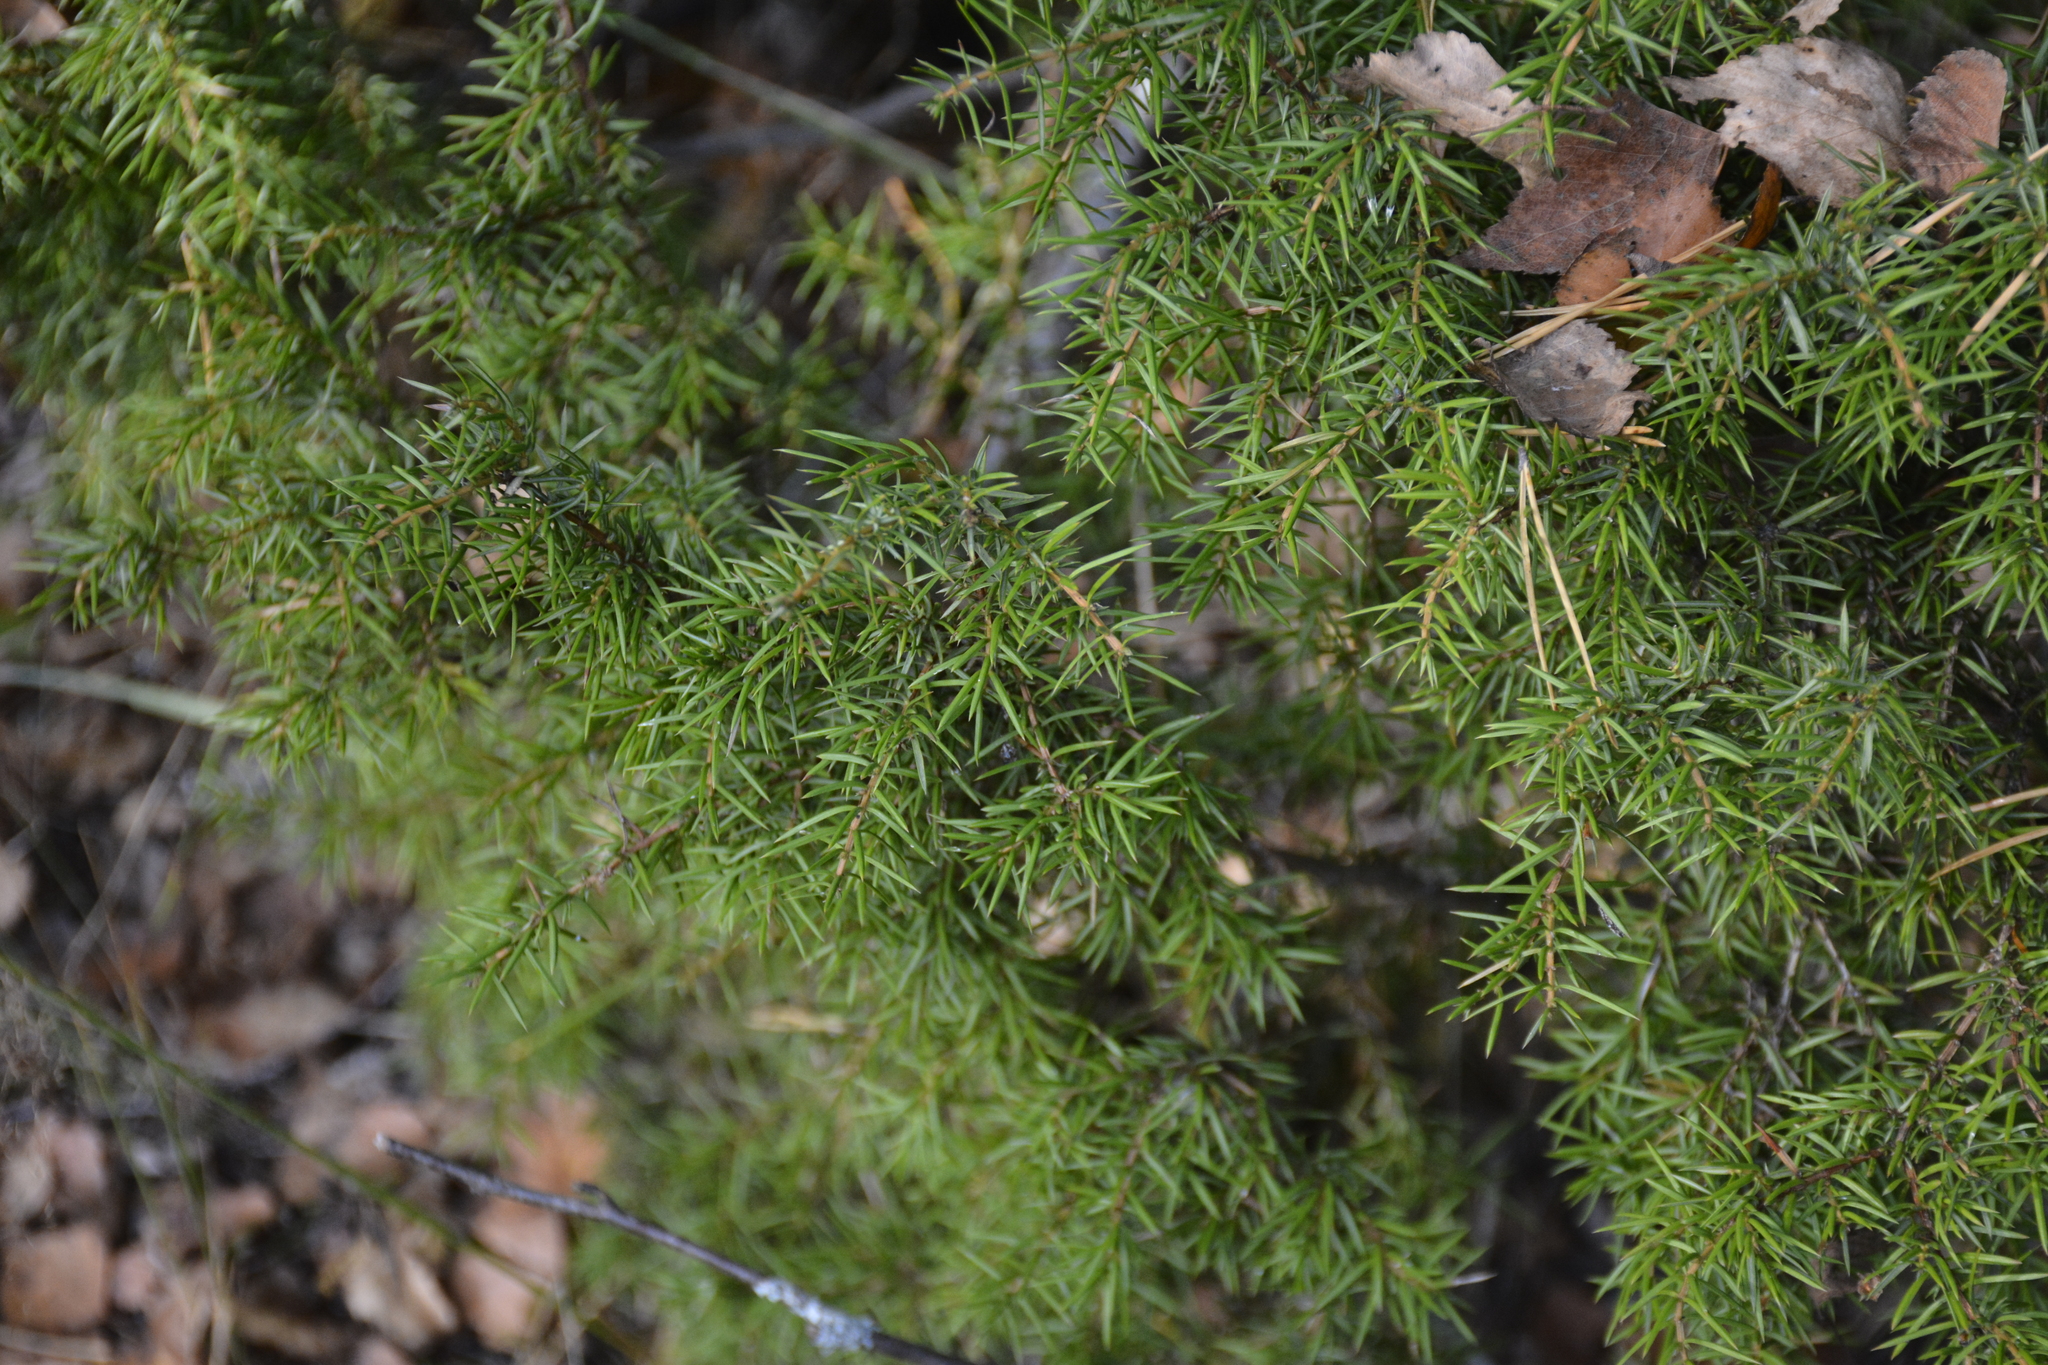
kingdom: Plantae
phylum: Tracheophyta
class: Pinopsida
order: Pinales
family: Cupressaceae
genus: Juniperus
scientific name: Juniperus communis
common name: Common juniper
